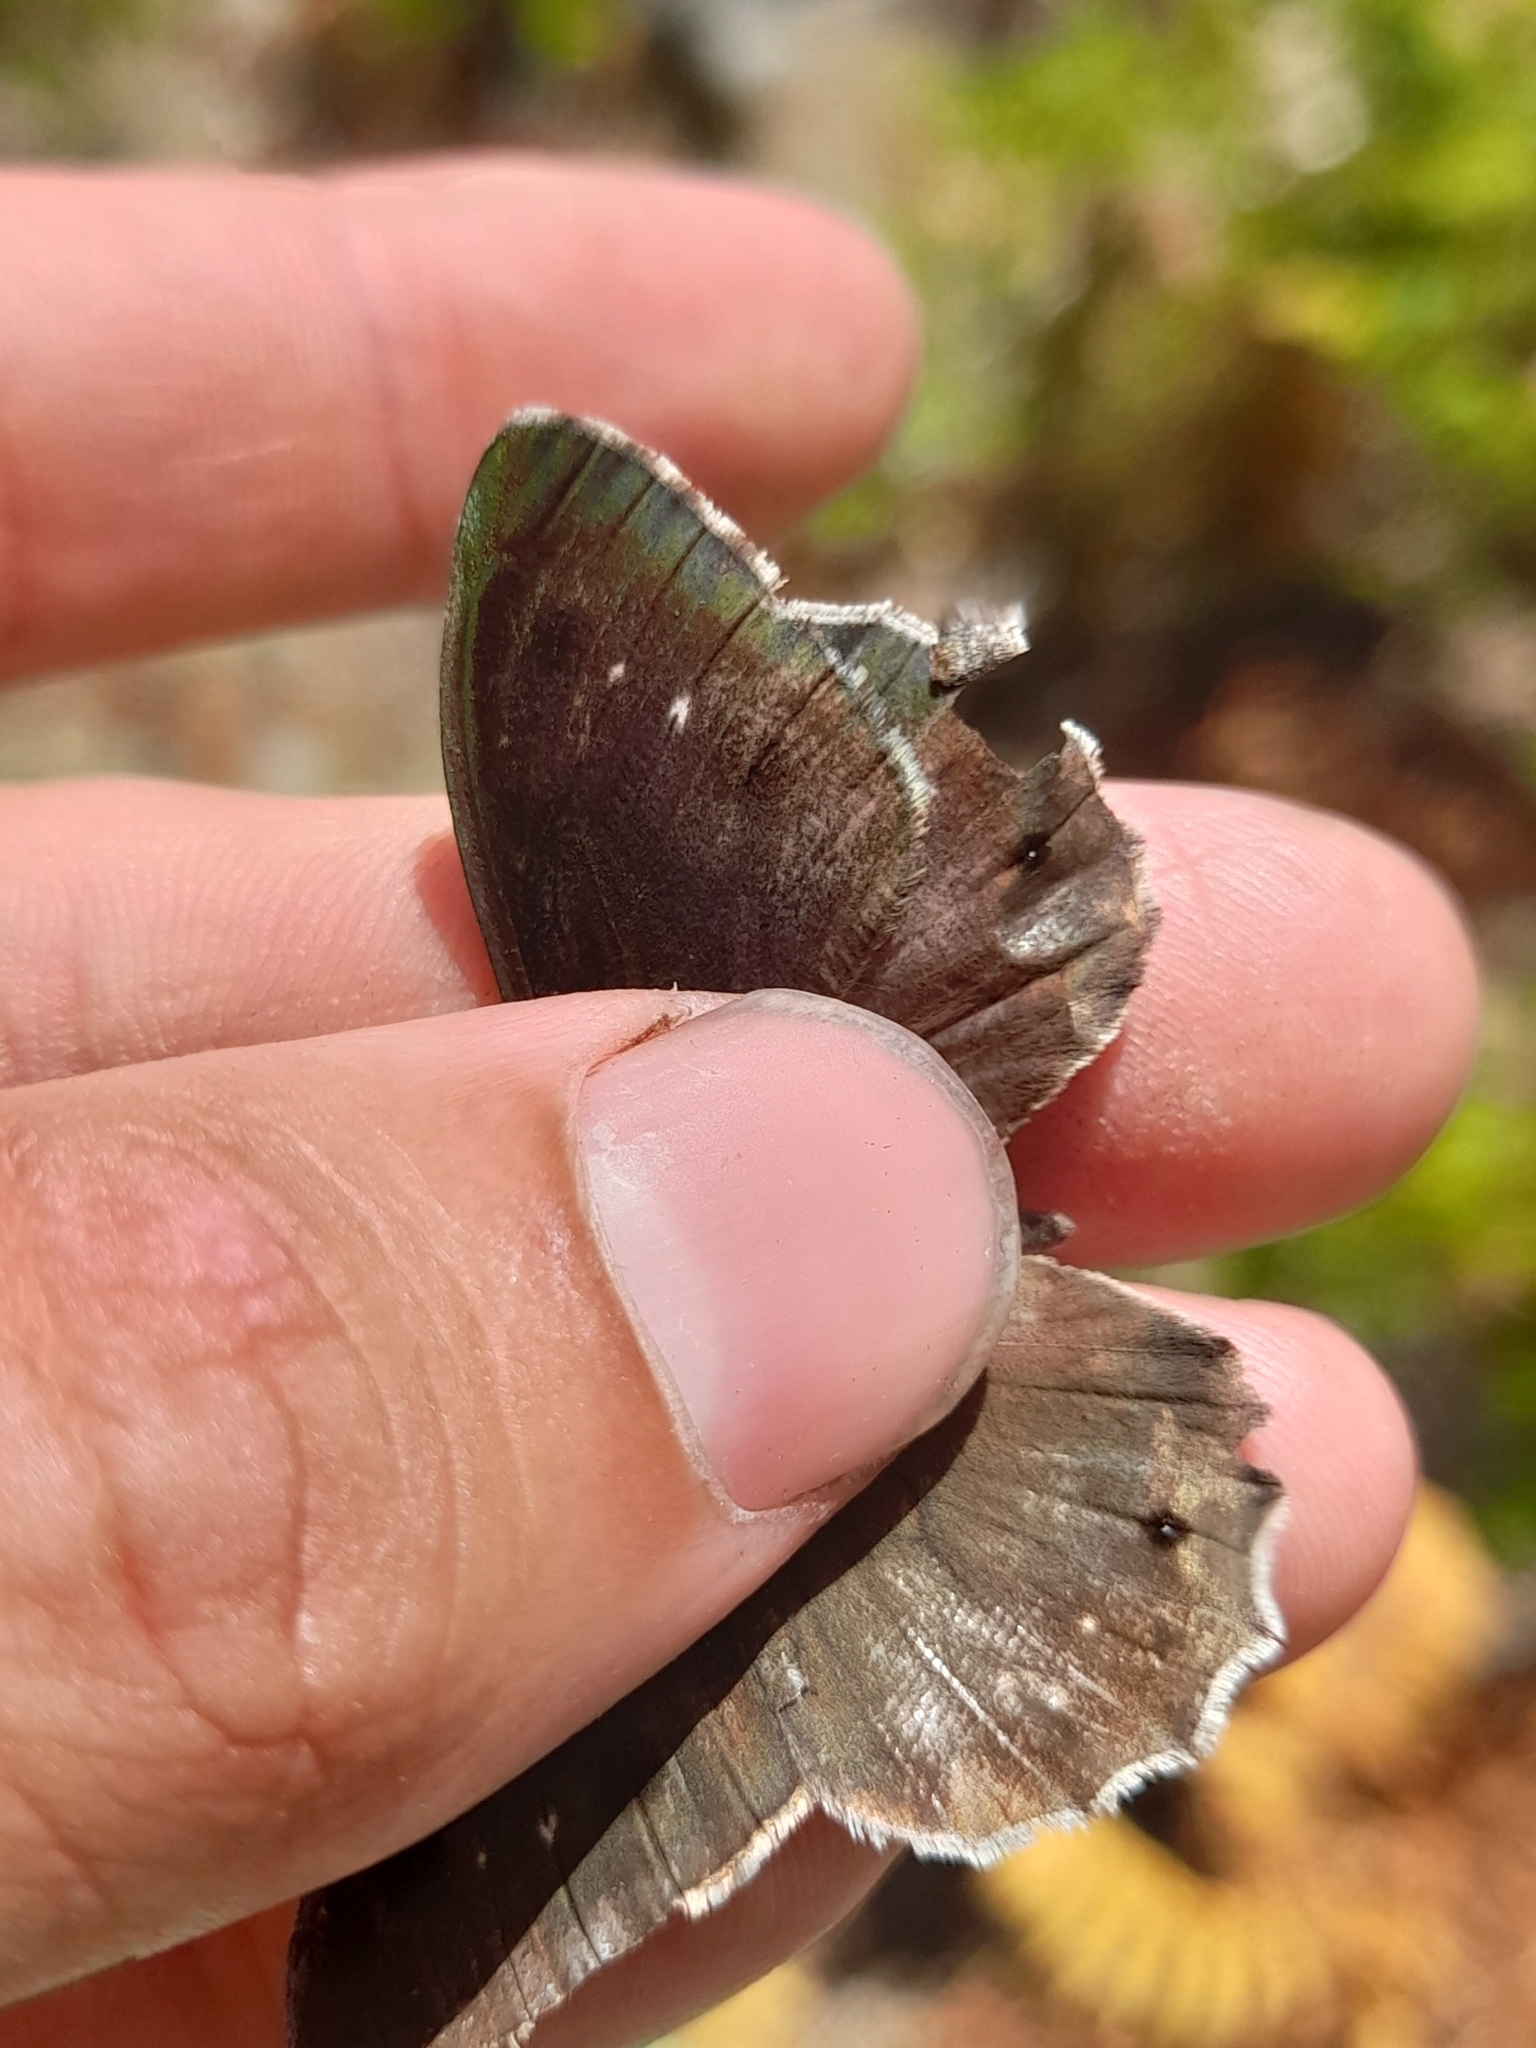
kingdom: Animalia
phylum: Arthropoda
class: Insecta
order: Lepidoptera
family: Nymphalidae
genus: Hipparchia
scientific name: Hipparchia statilinus
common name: Tree grayling
